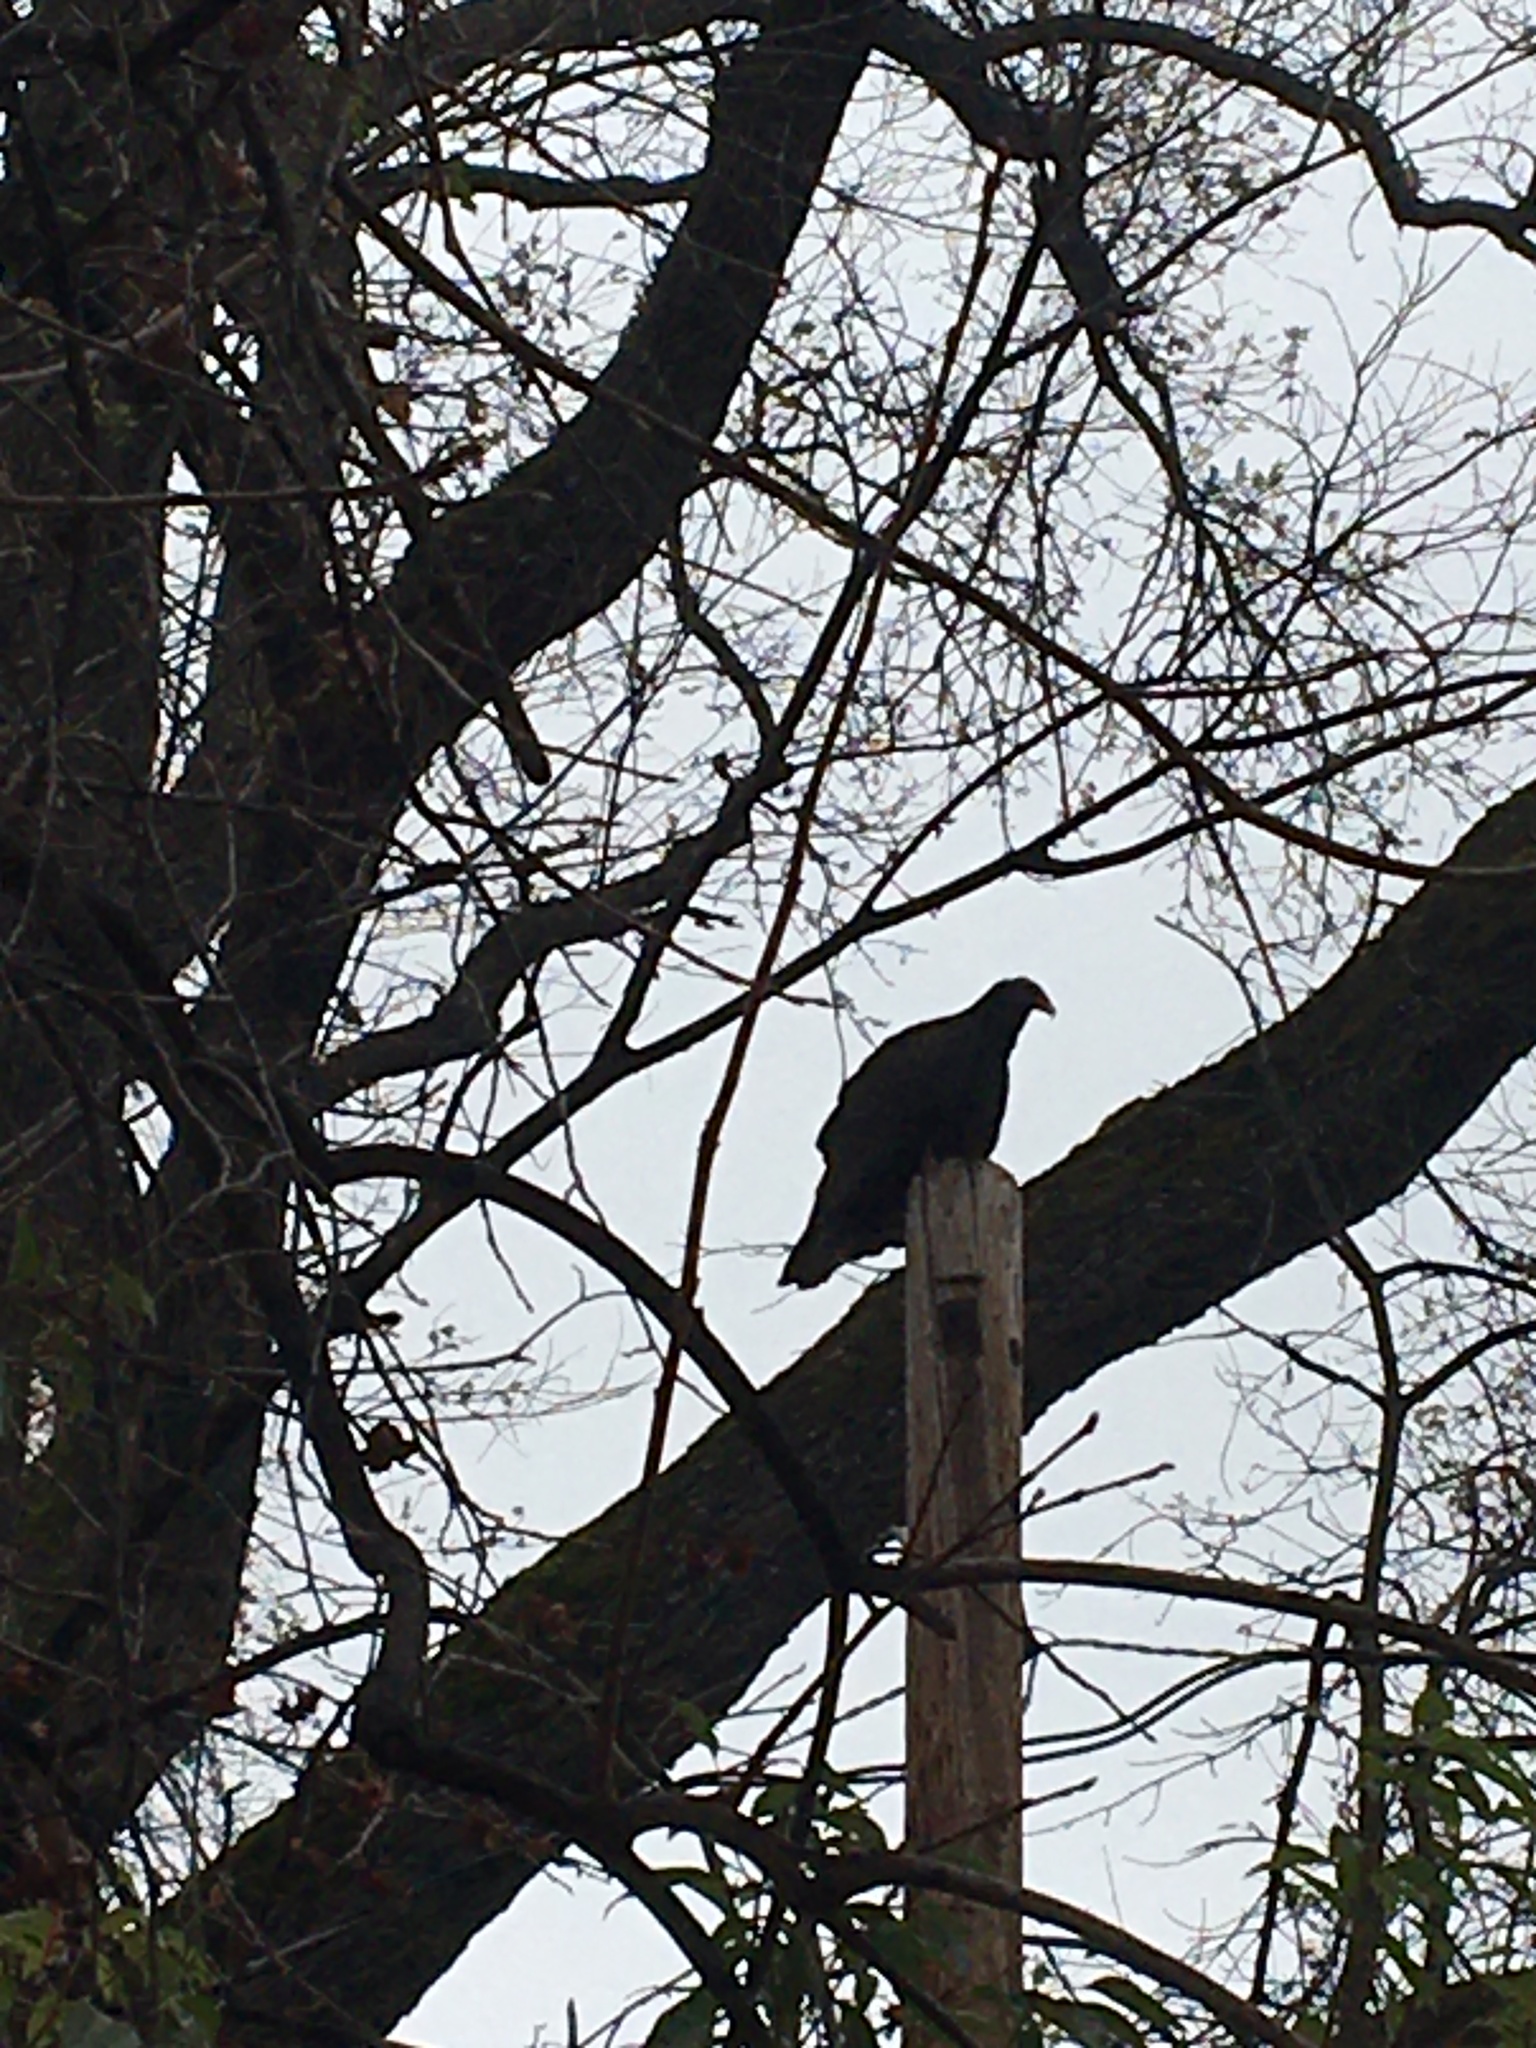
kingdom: Animalia
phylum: Chordata
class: Aves
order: Accipitriformes
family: Cathartidae
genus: Cathartes
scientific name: Cathartes aura
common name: Turkey vulture
